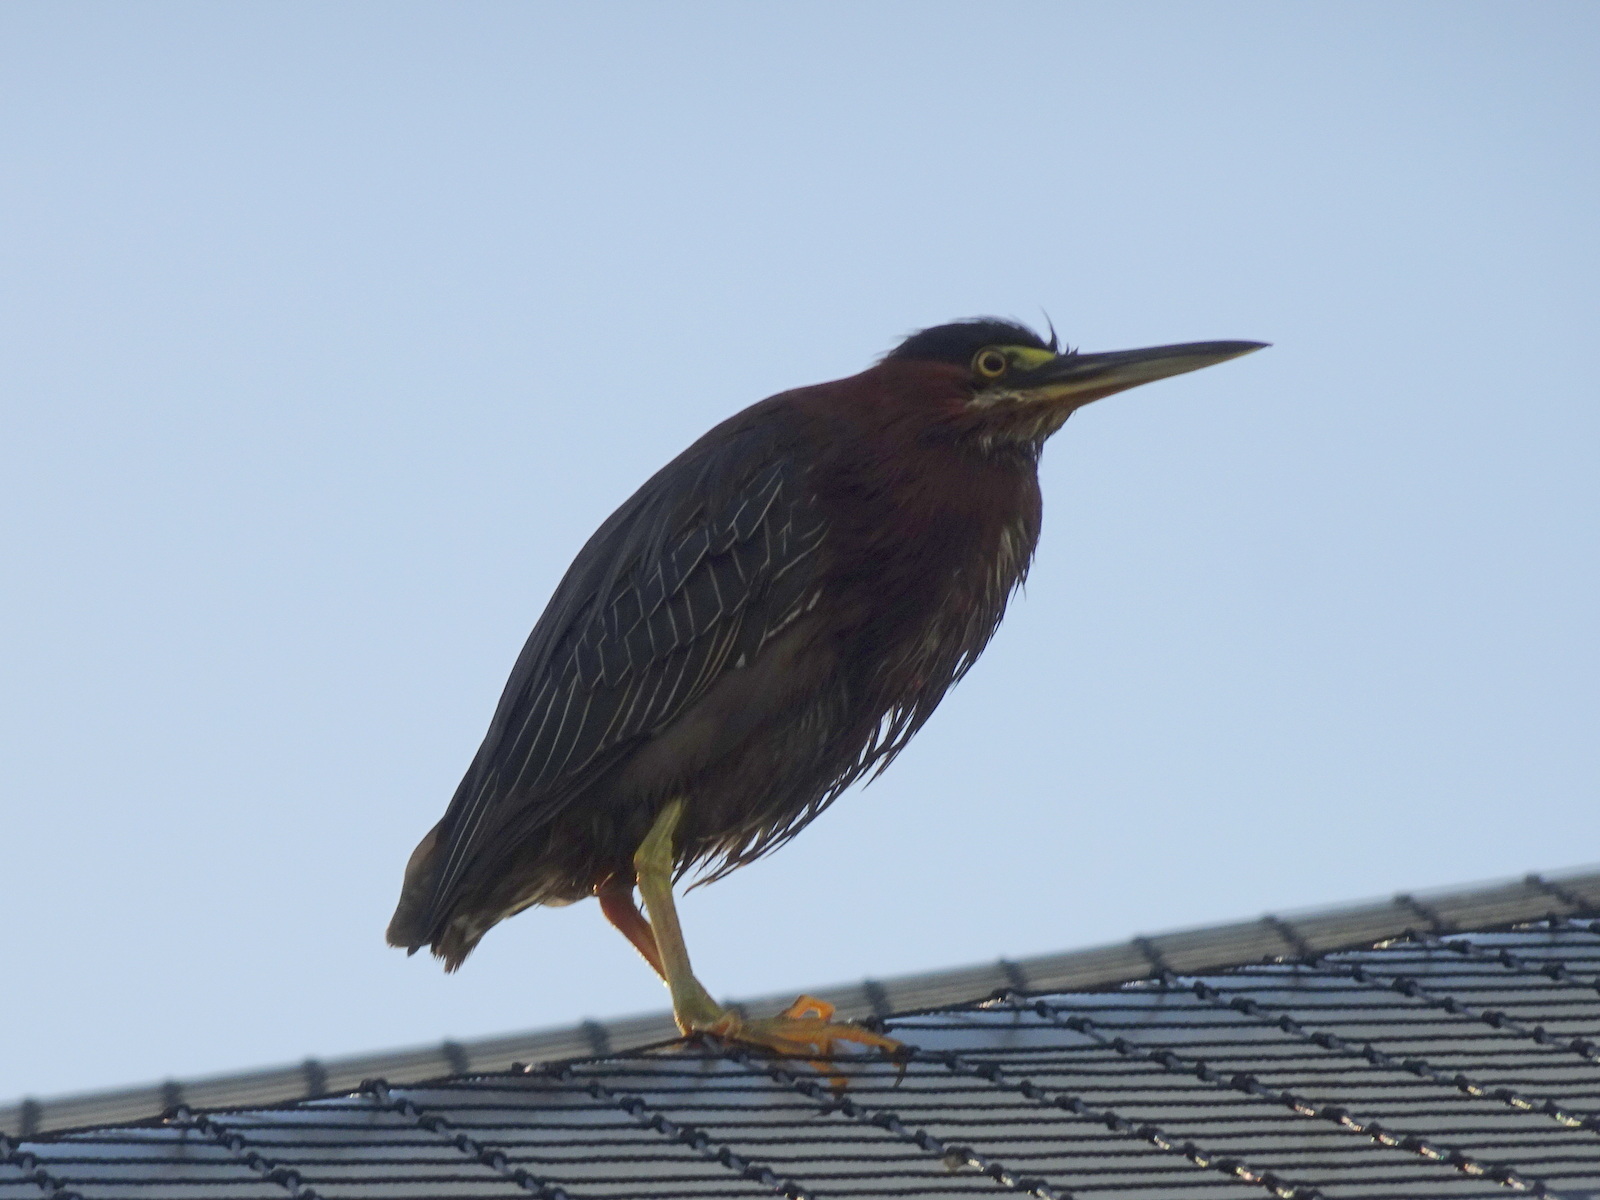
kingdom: Animalia
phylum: Chordata
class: Aves
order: Pelecaniformes
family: Ardeidae
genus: Butorides
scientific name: Butorides virescens
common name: Green heron
